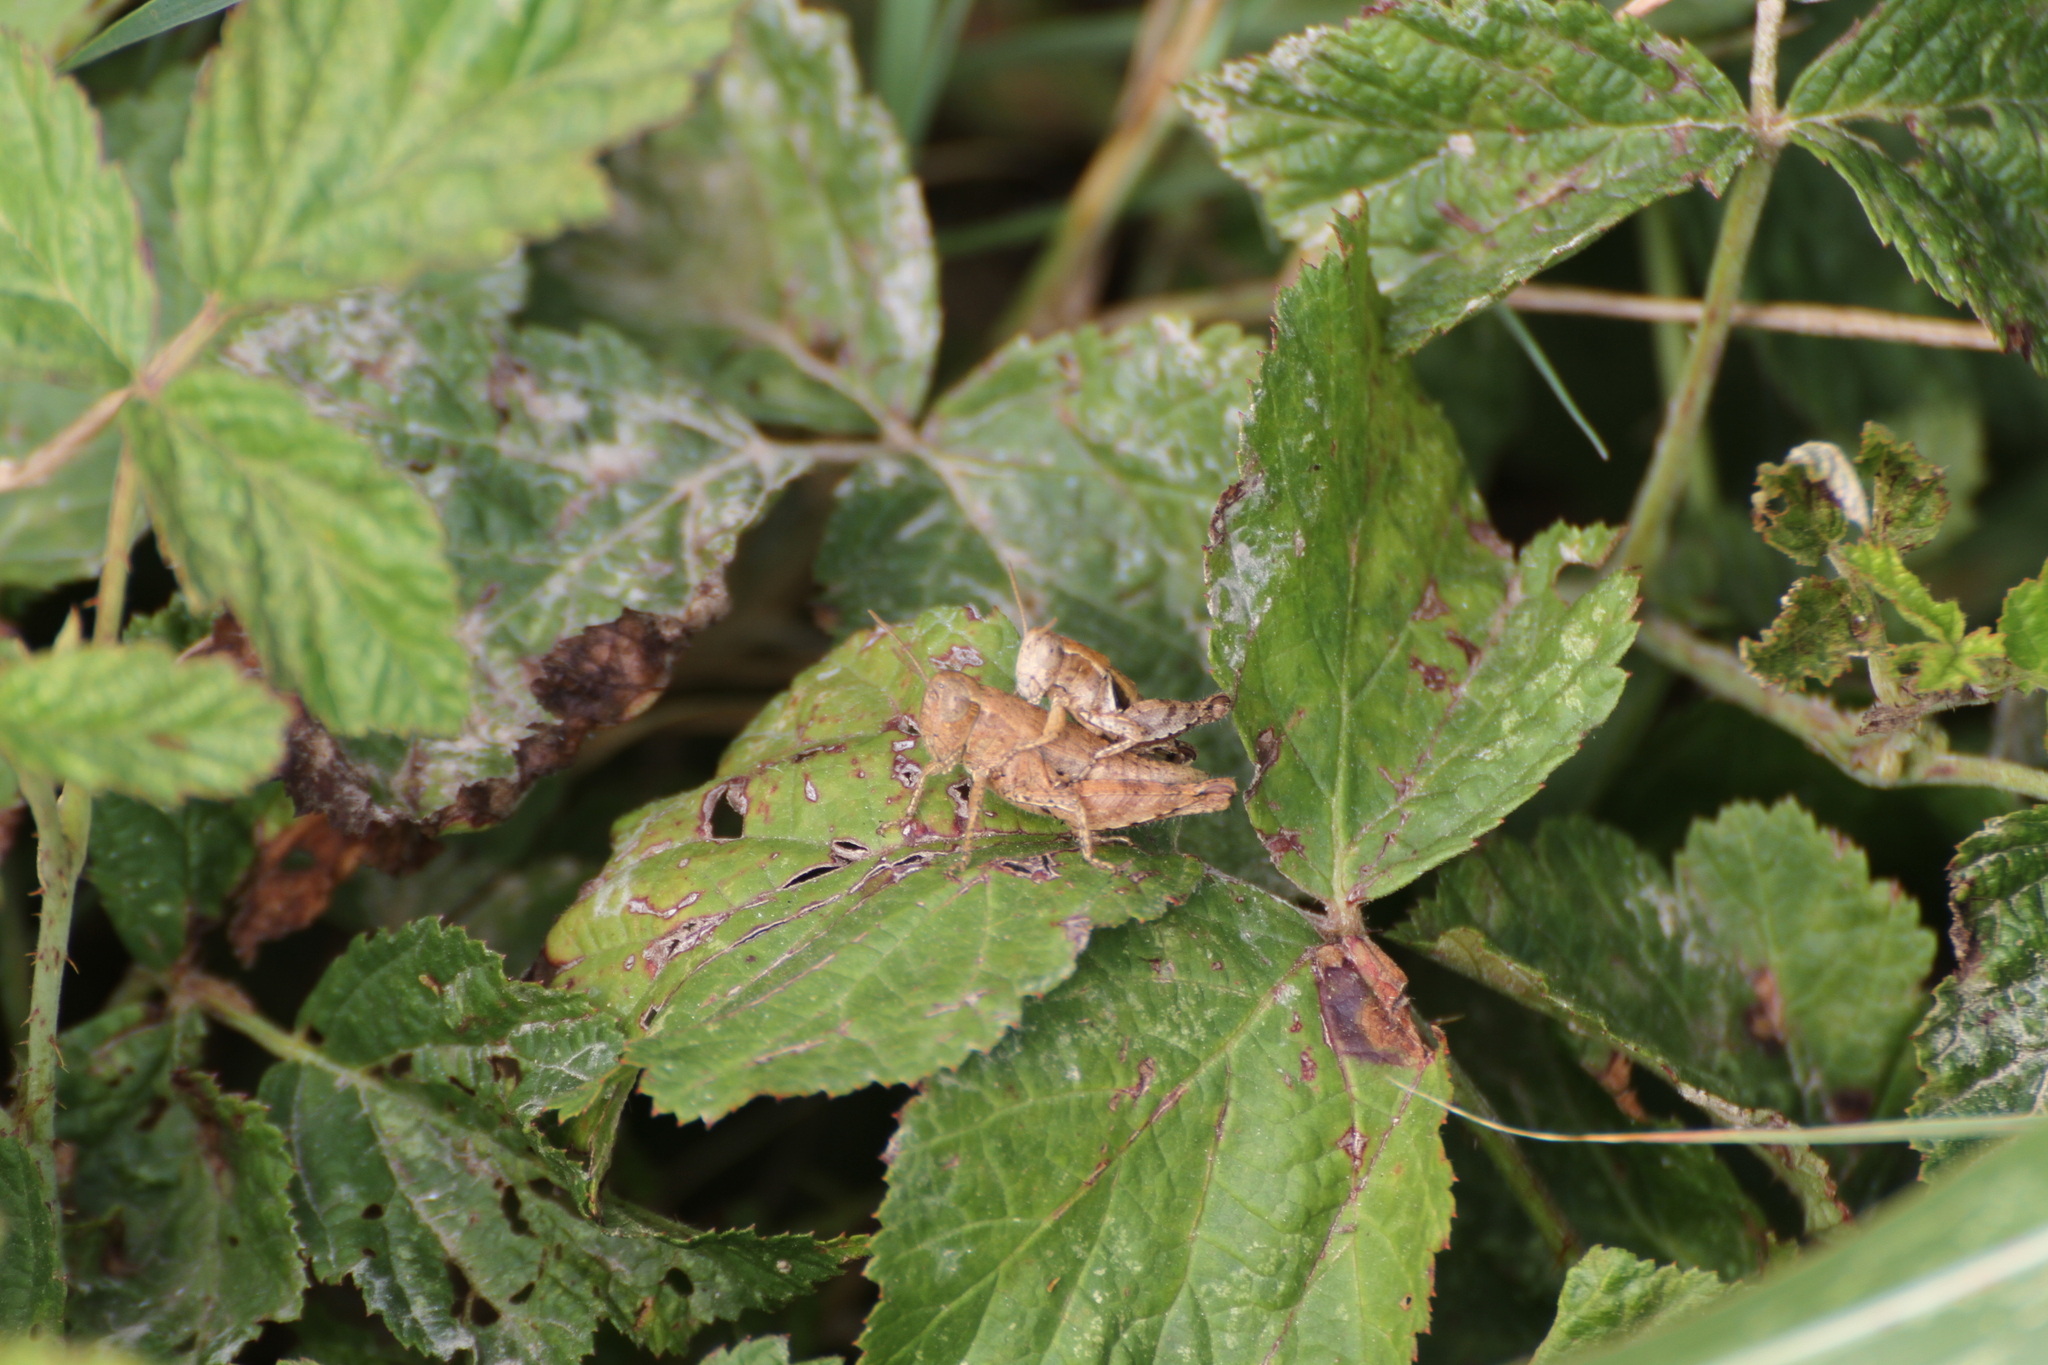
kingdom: Animalia
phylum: Arthropoda
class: Insecta
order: Orthoptera
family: Acrididae
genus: Pezotettix
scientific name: Pezotettix giornae
